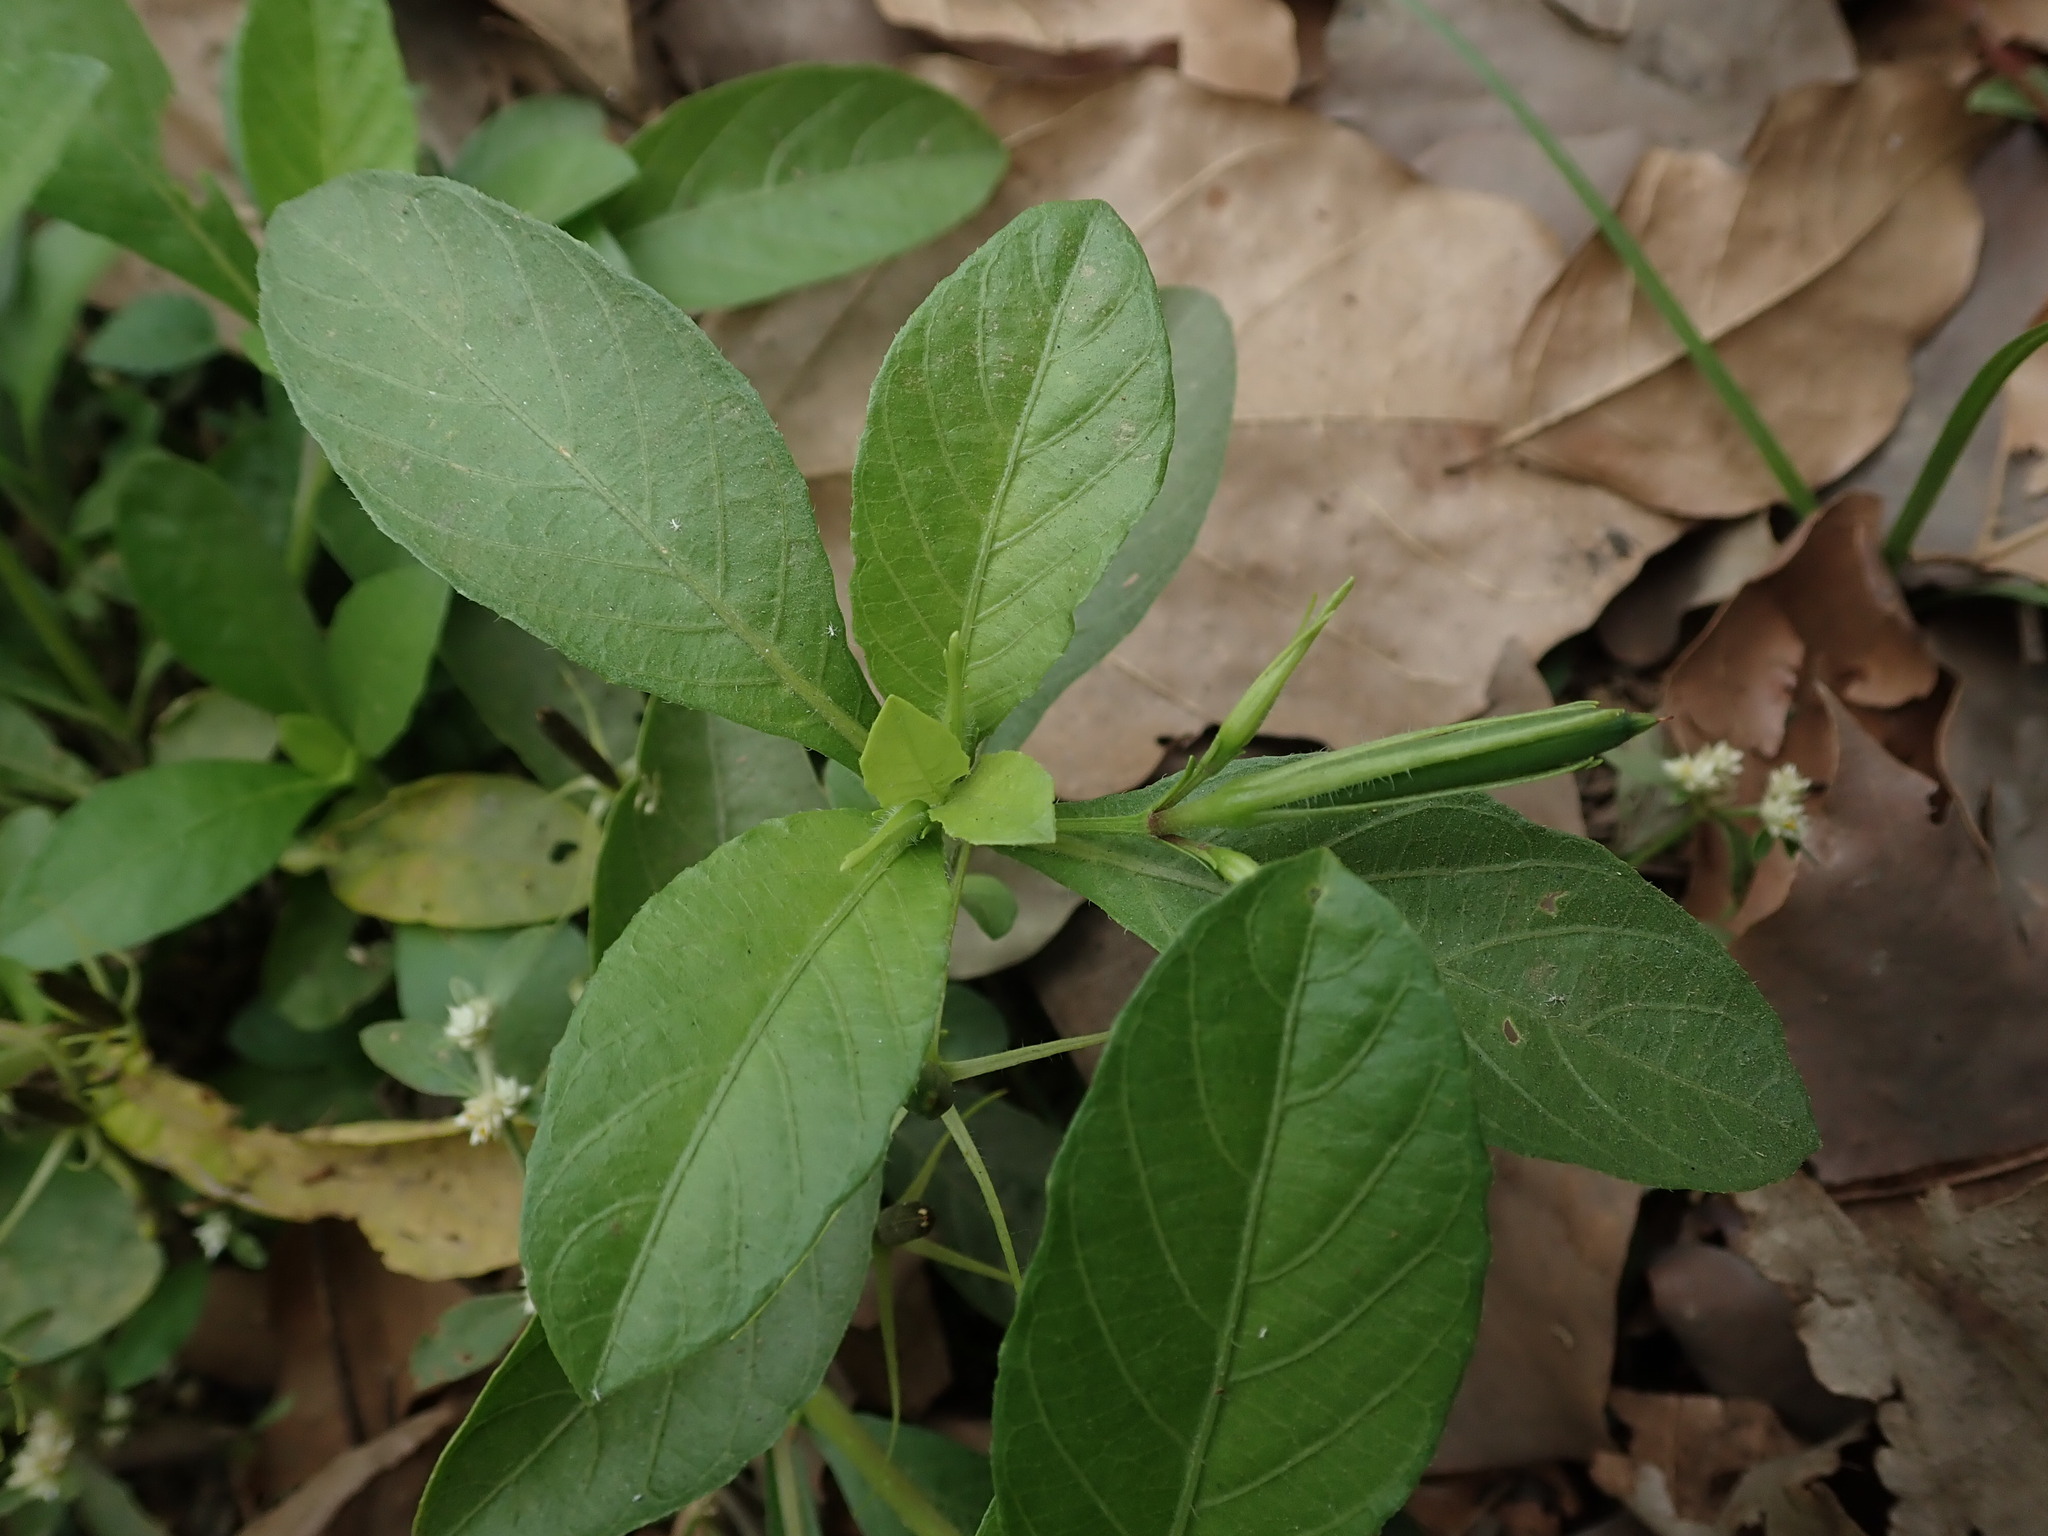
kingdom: Plantae
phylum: Tracheophyta
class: Magnoliopsida
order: Lamiales
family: Acanthaceae
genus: Ruellia
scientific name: Ruellia tuberosa
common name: Devil's bit
